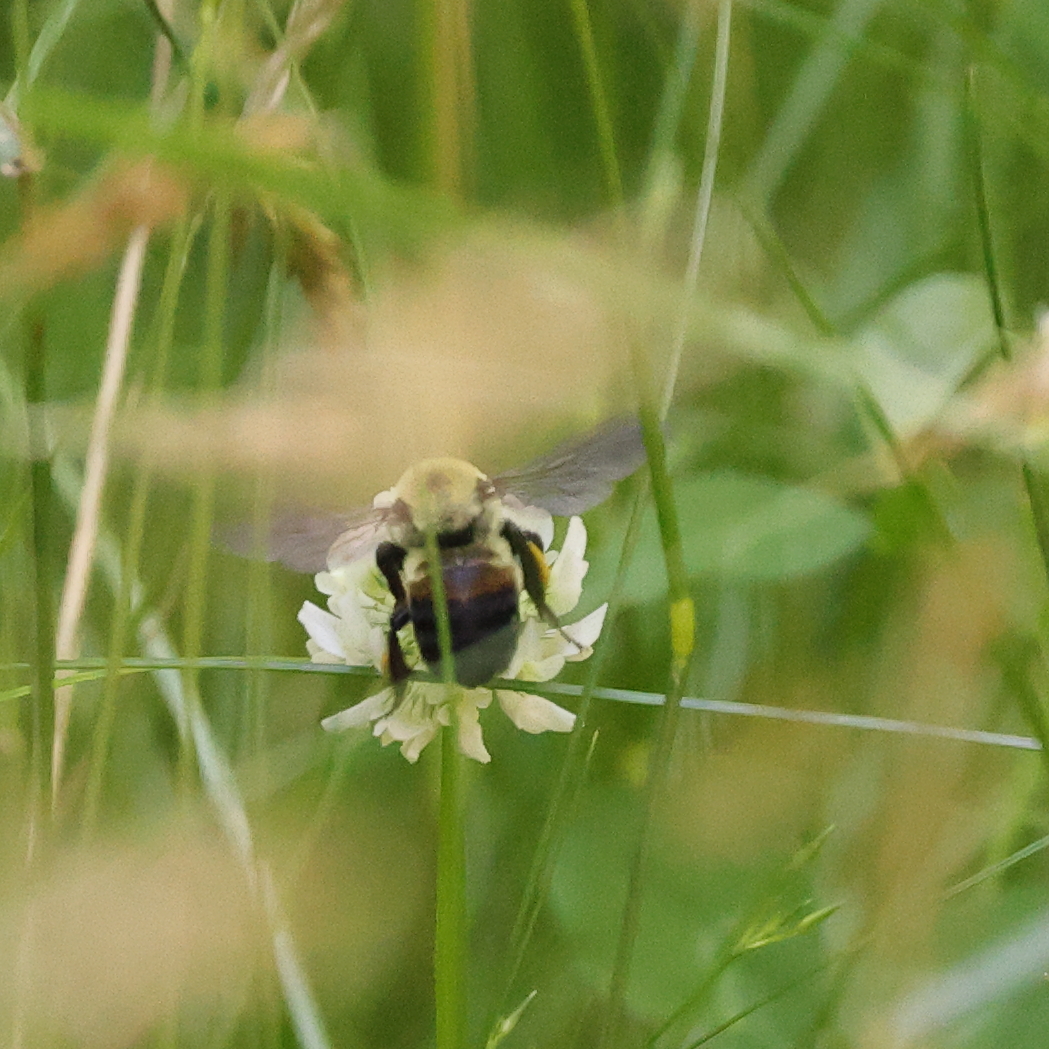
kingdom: Animalia
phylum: Arthropoda
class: Insecta
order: Hymenoptera
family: Apidae
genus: Bombus
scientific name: Bombus griseocollis
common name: Brown-belted bumble bee
